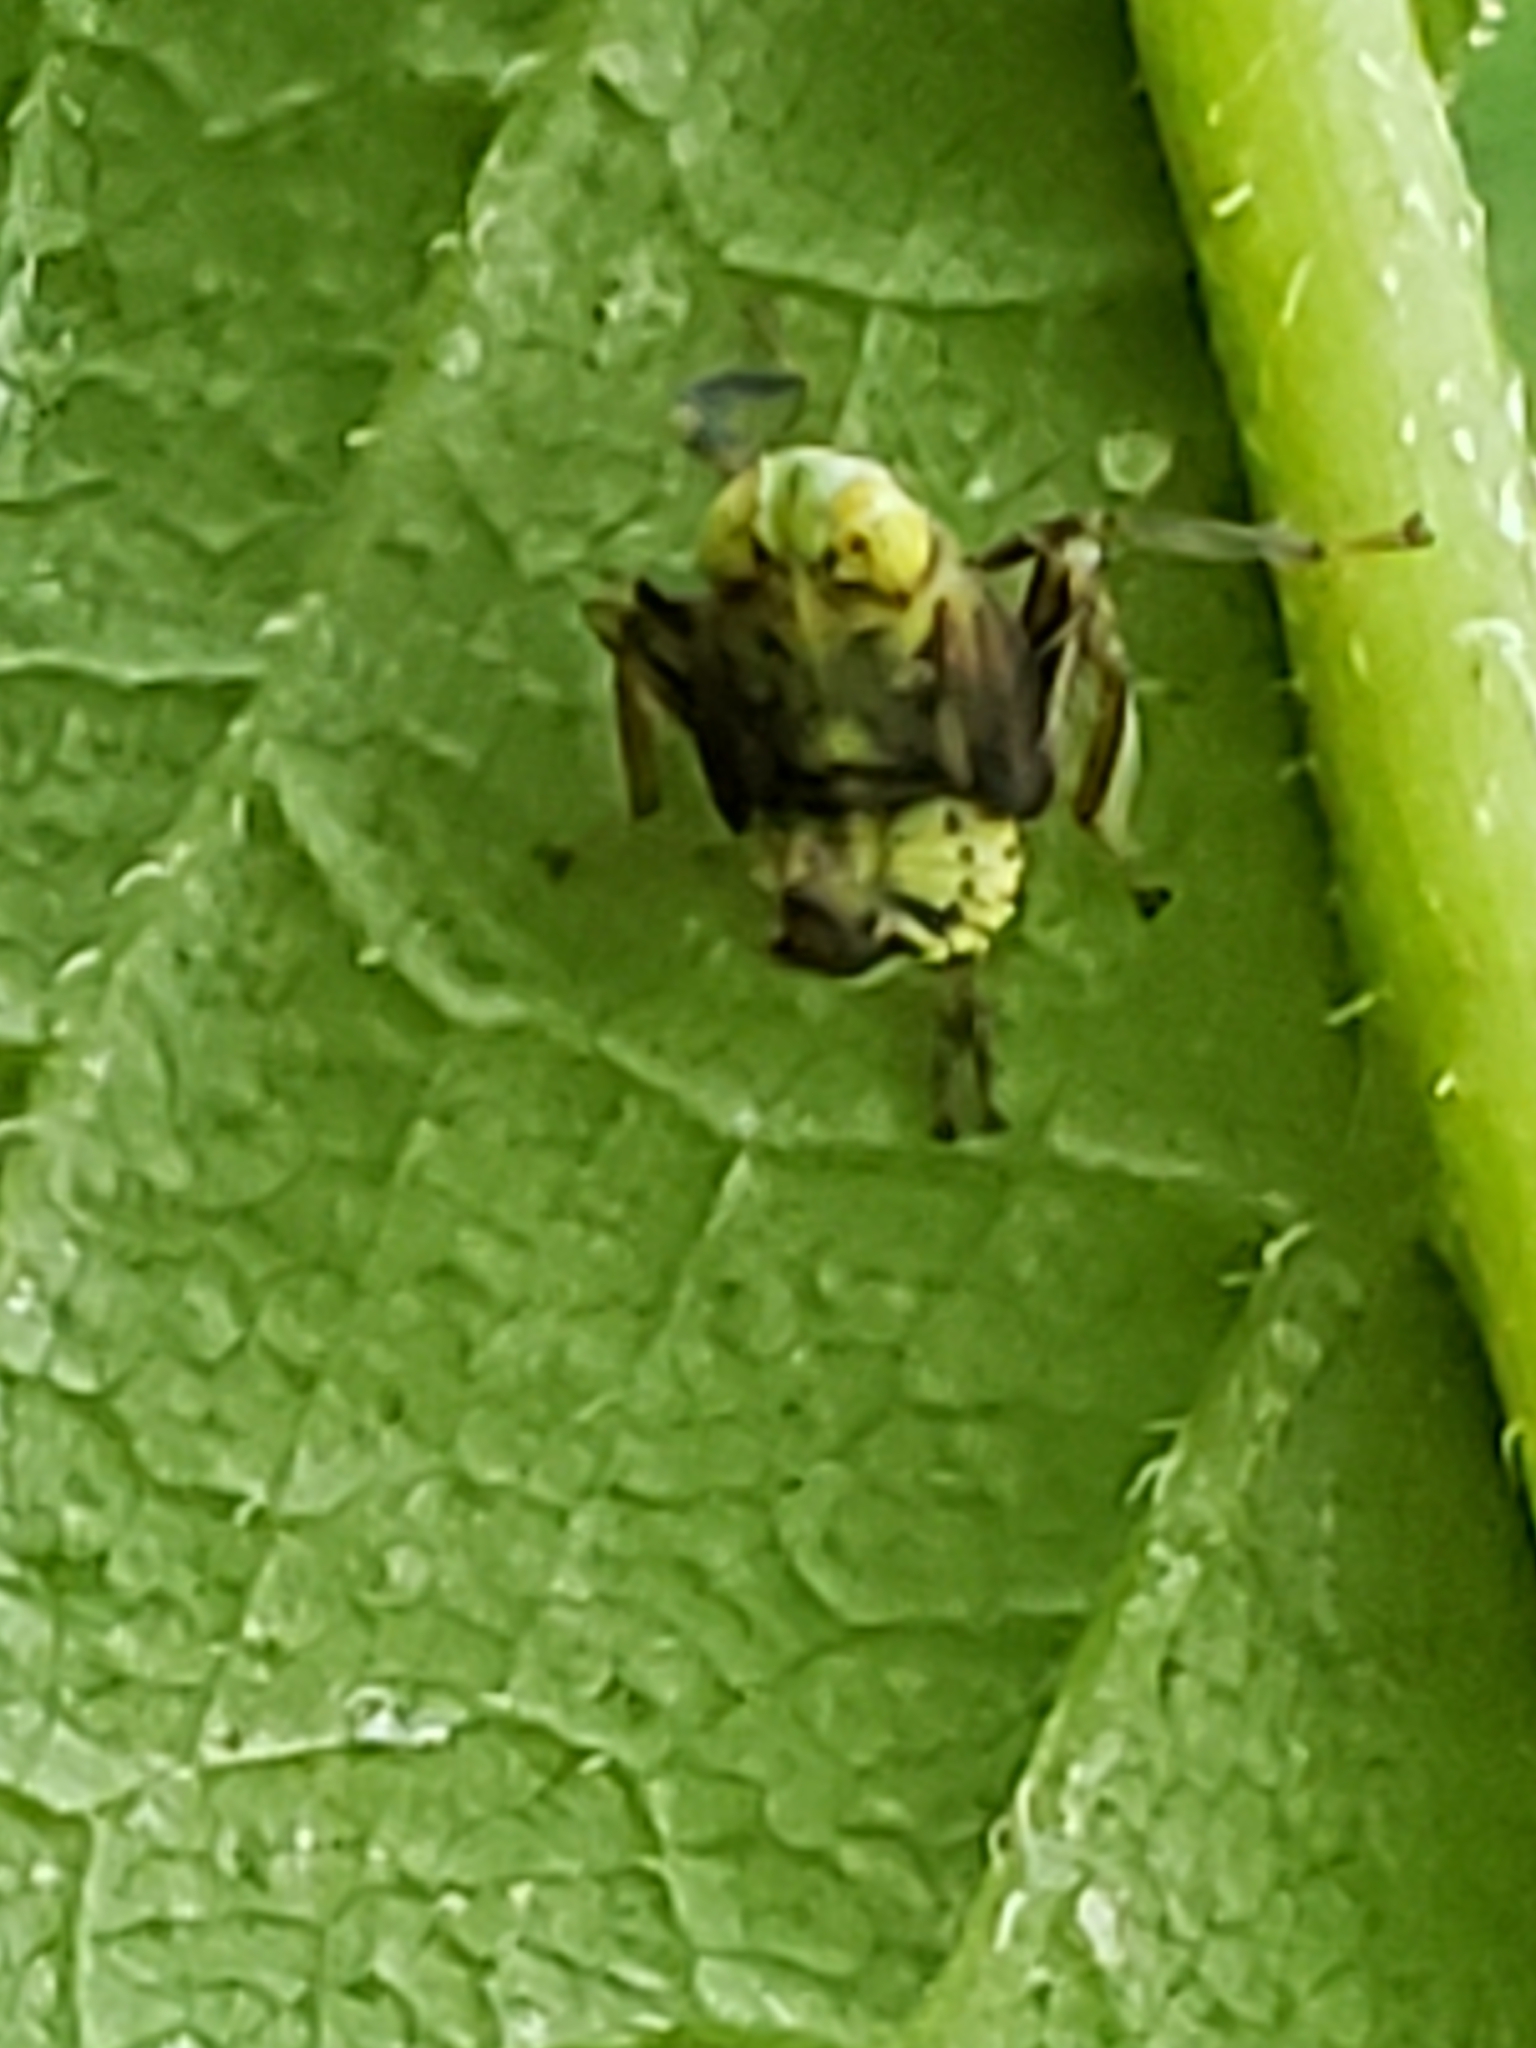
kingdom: Animalia
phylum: Arthropoda
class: Insecta
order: Hemiptera
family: Cicadellidae
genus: Jikradia
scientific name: Jikradia olitoria
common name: Coppery leafhopper
